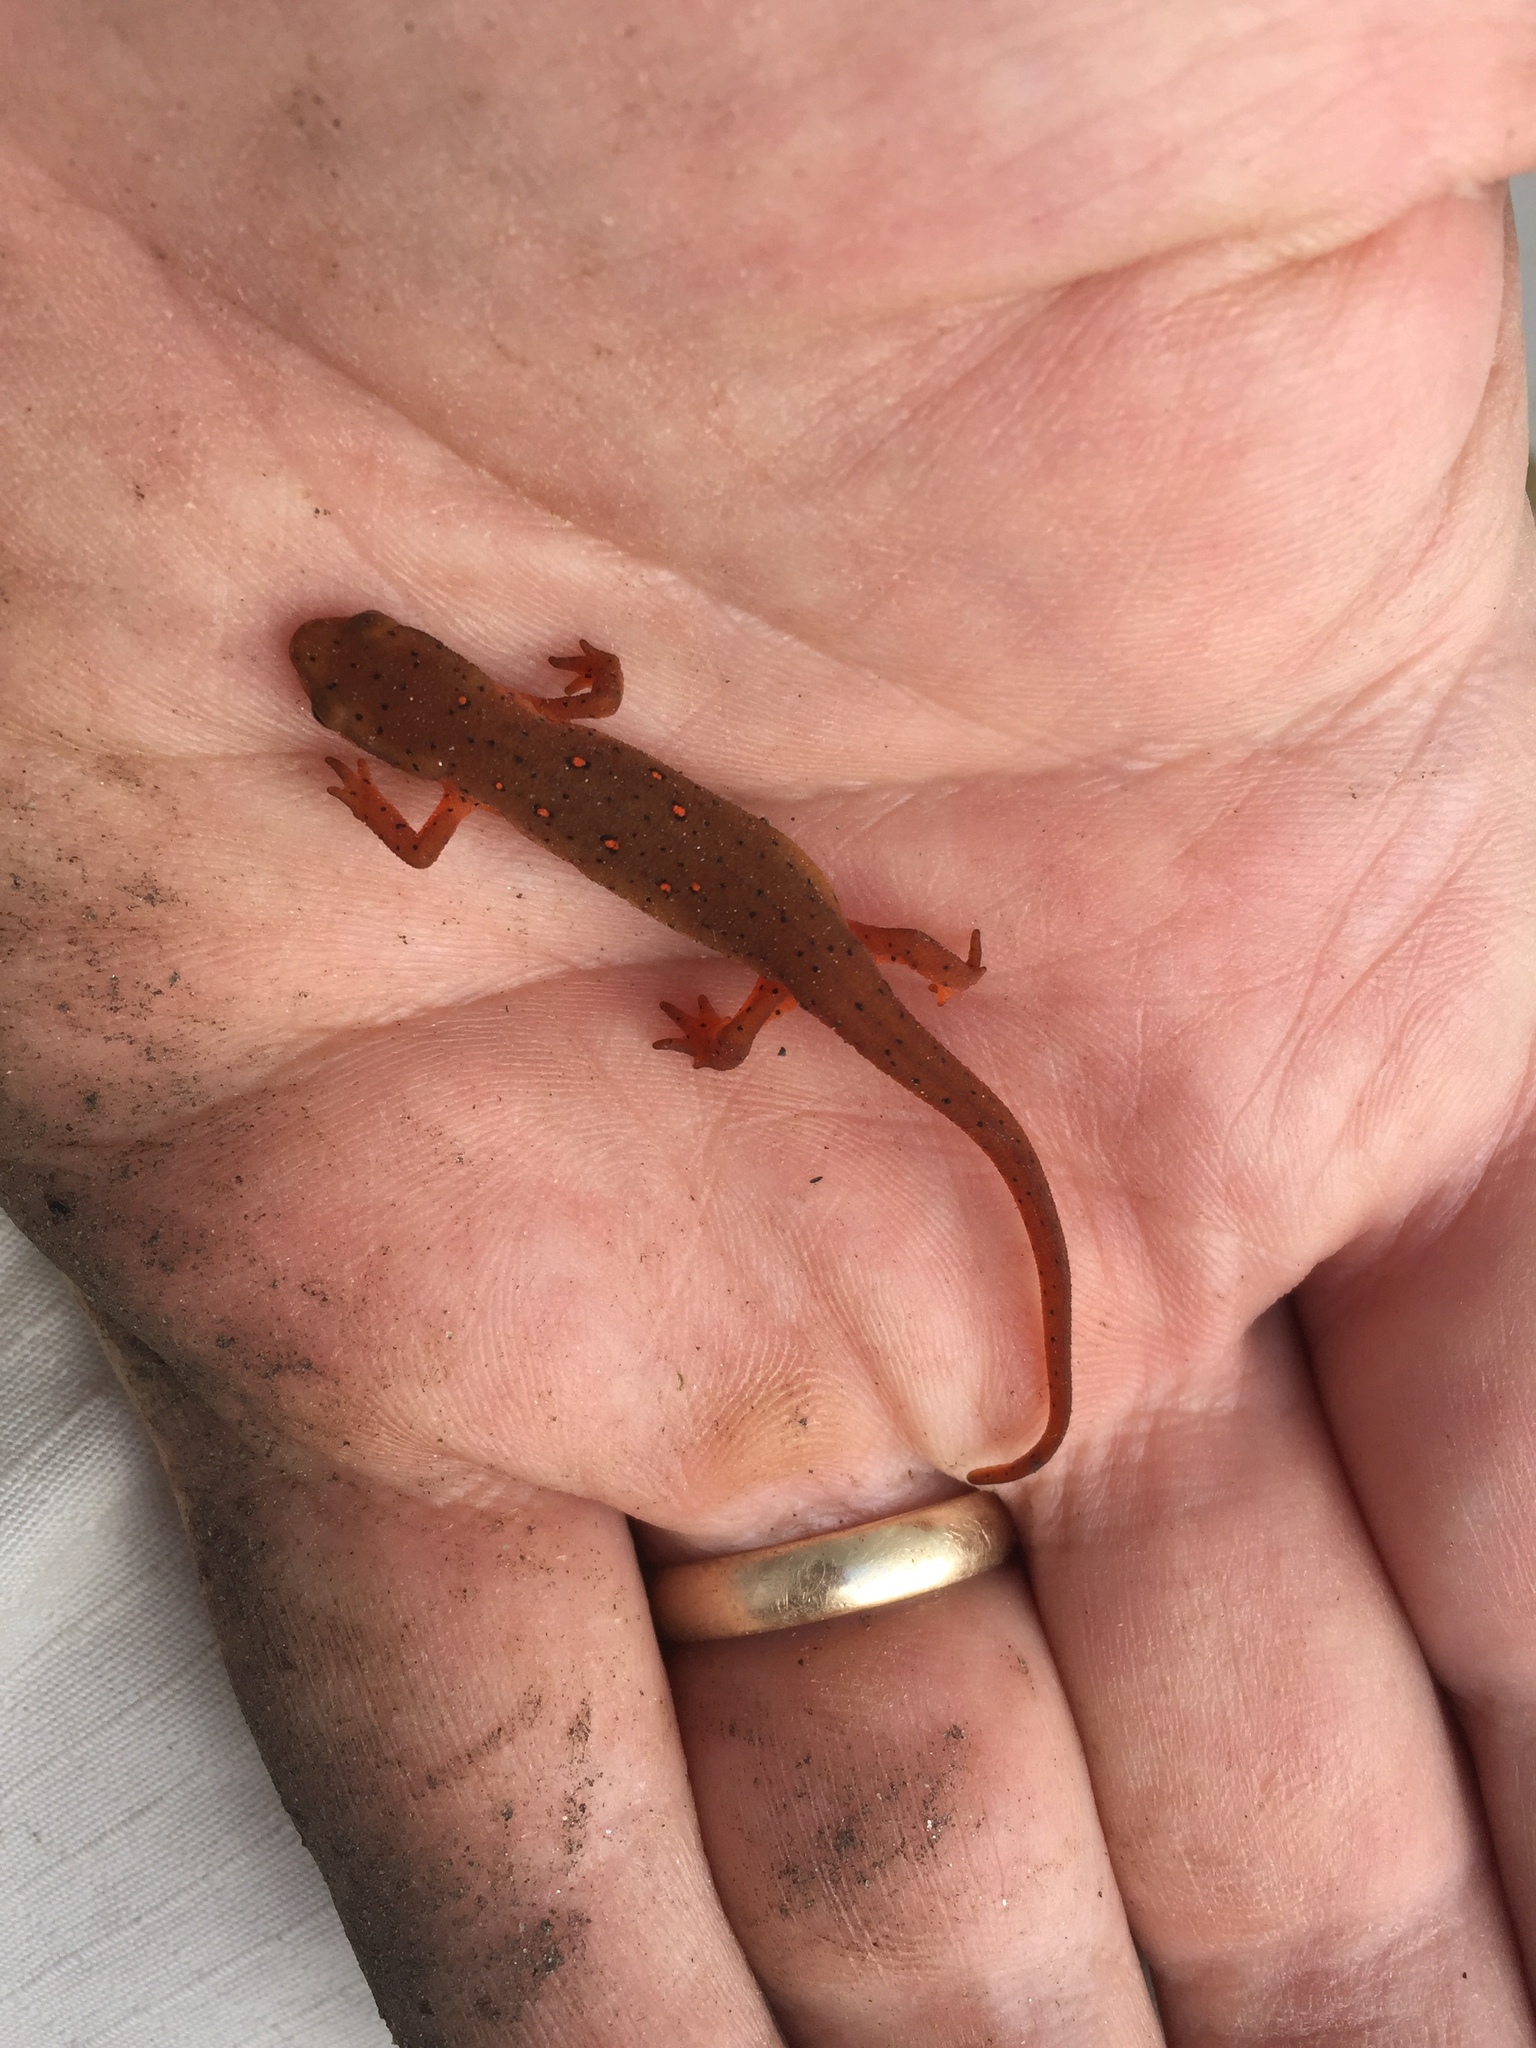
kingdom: Animalia
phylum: Chordata
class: Amphibia
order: Caudata
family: Salamandridae
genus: Notophthalmus
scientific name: Notophthalmus viridescens
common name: Eastern newt
